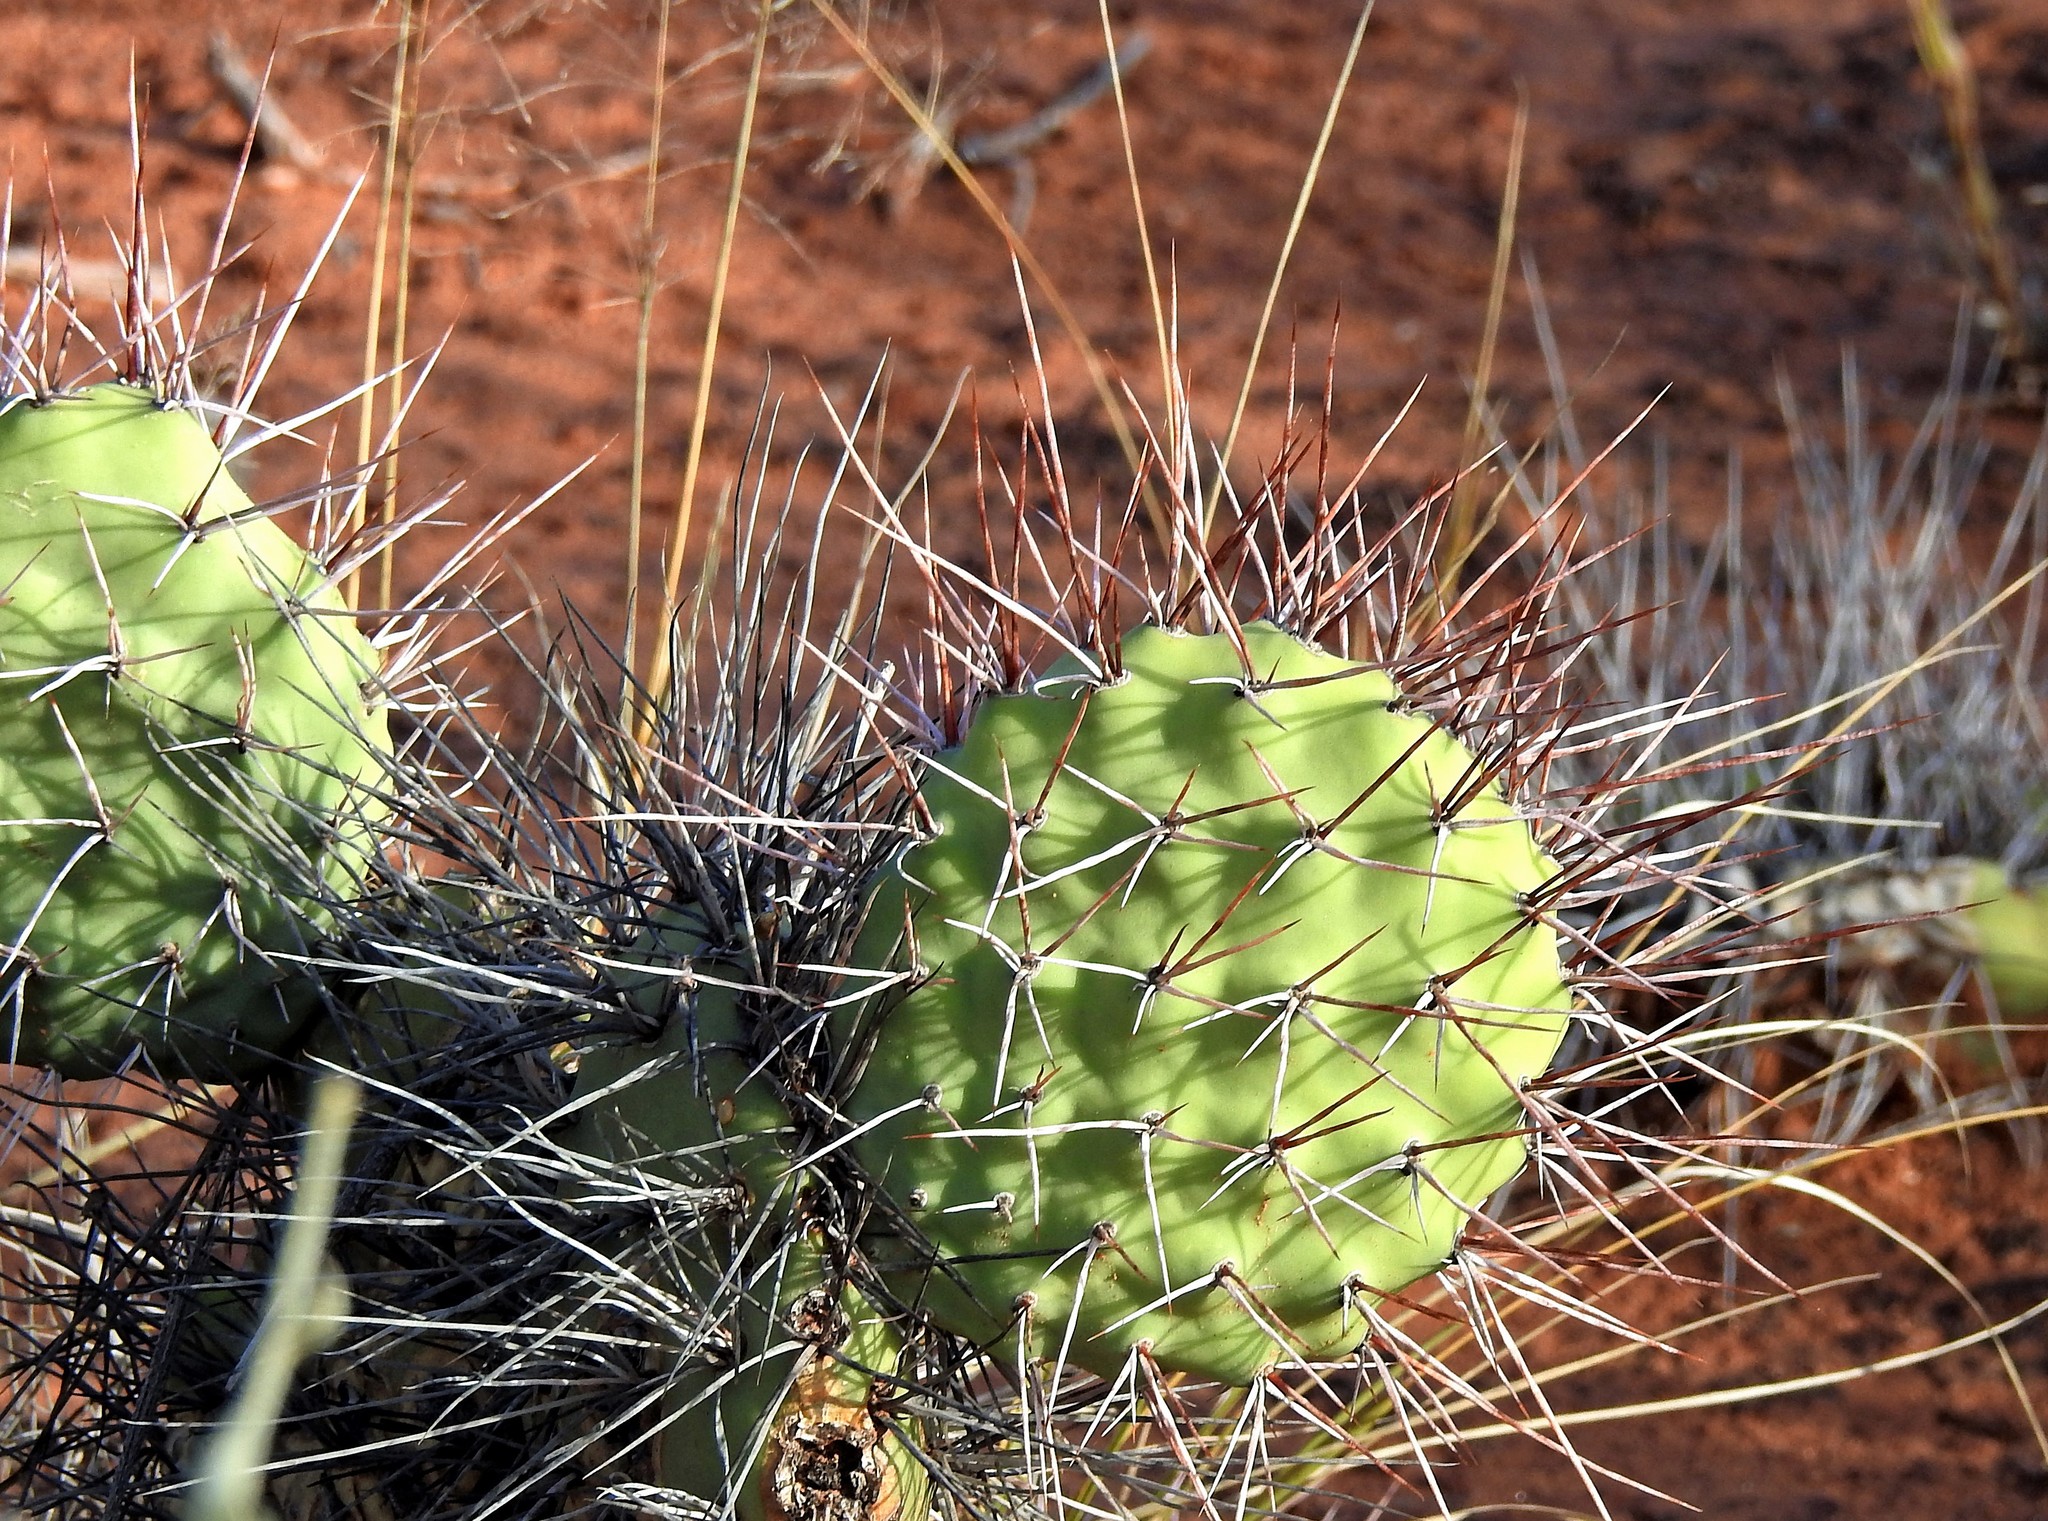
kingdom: Plantae
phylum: Tracheophyta
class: Magnoliopsida
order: Caryophyllales
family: Cactaceae
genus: Opuntia
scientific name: Opuntia sulphurea
